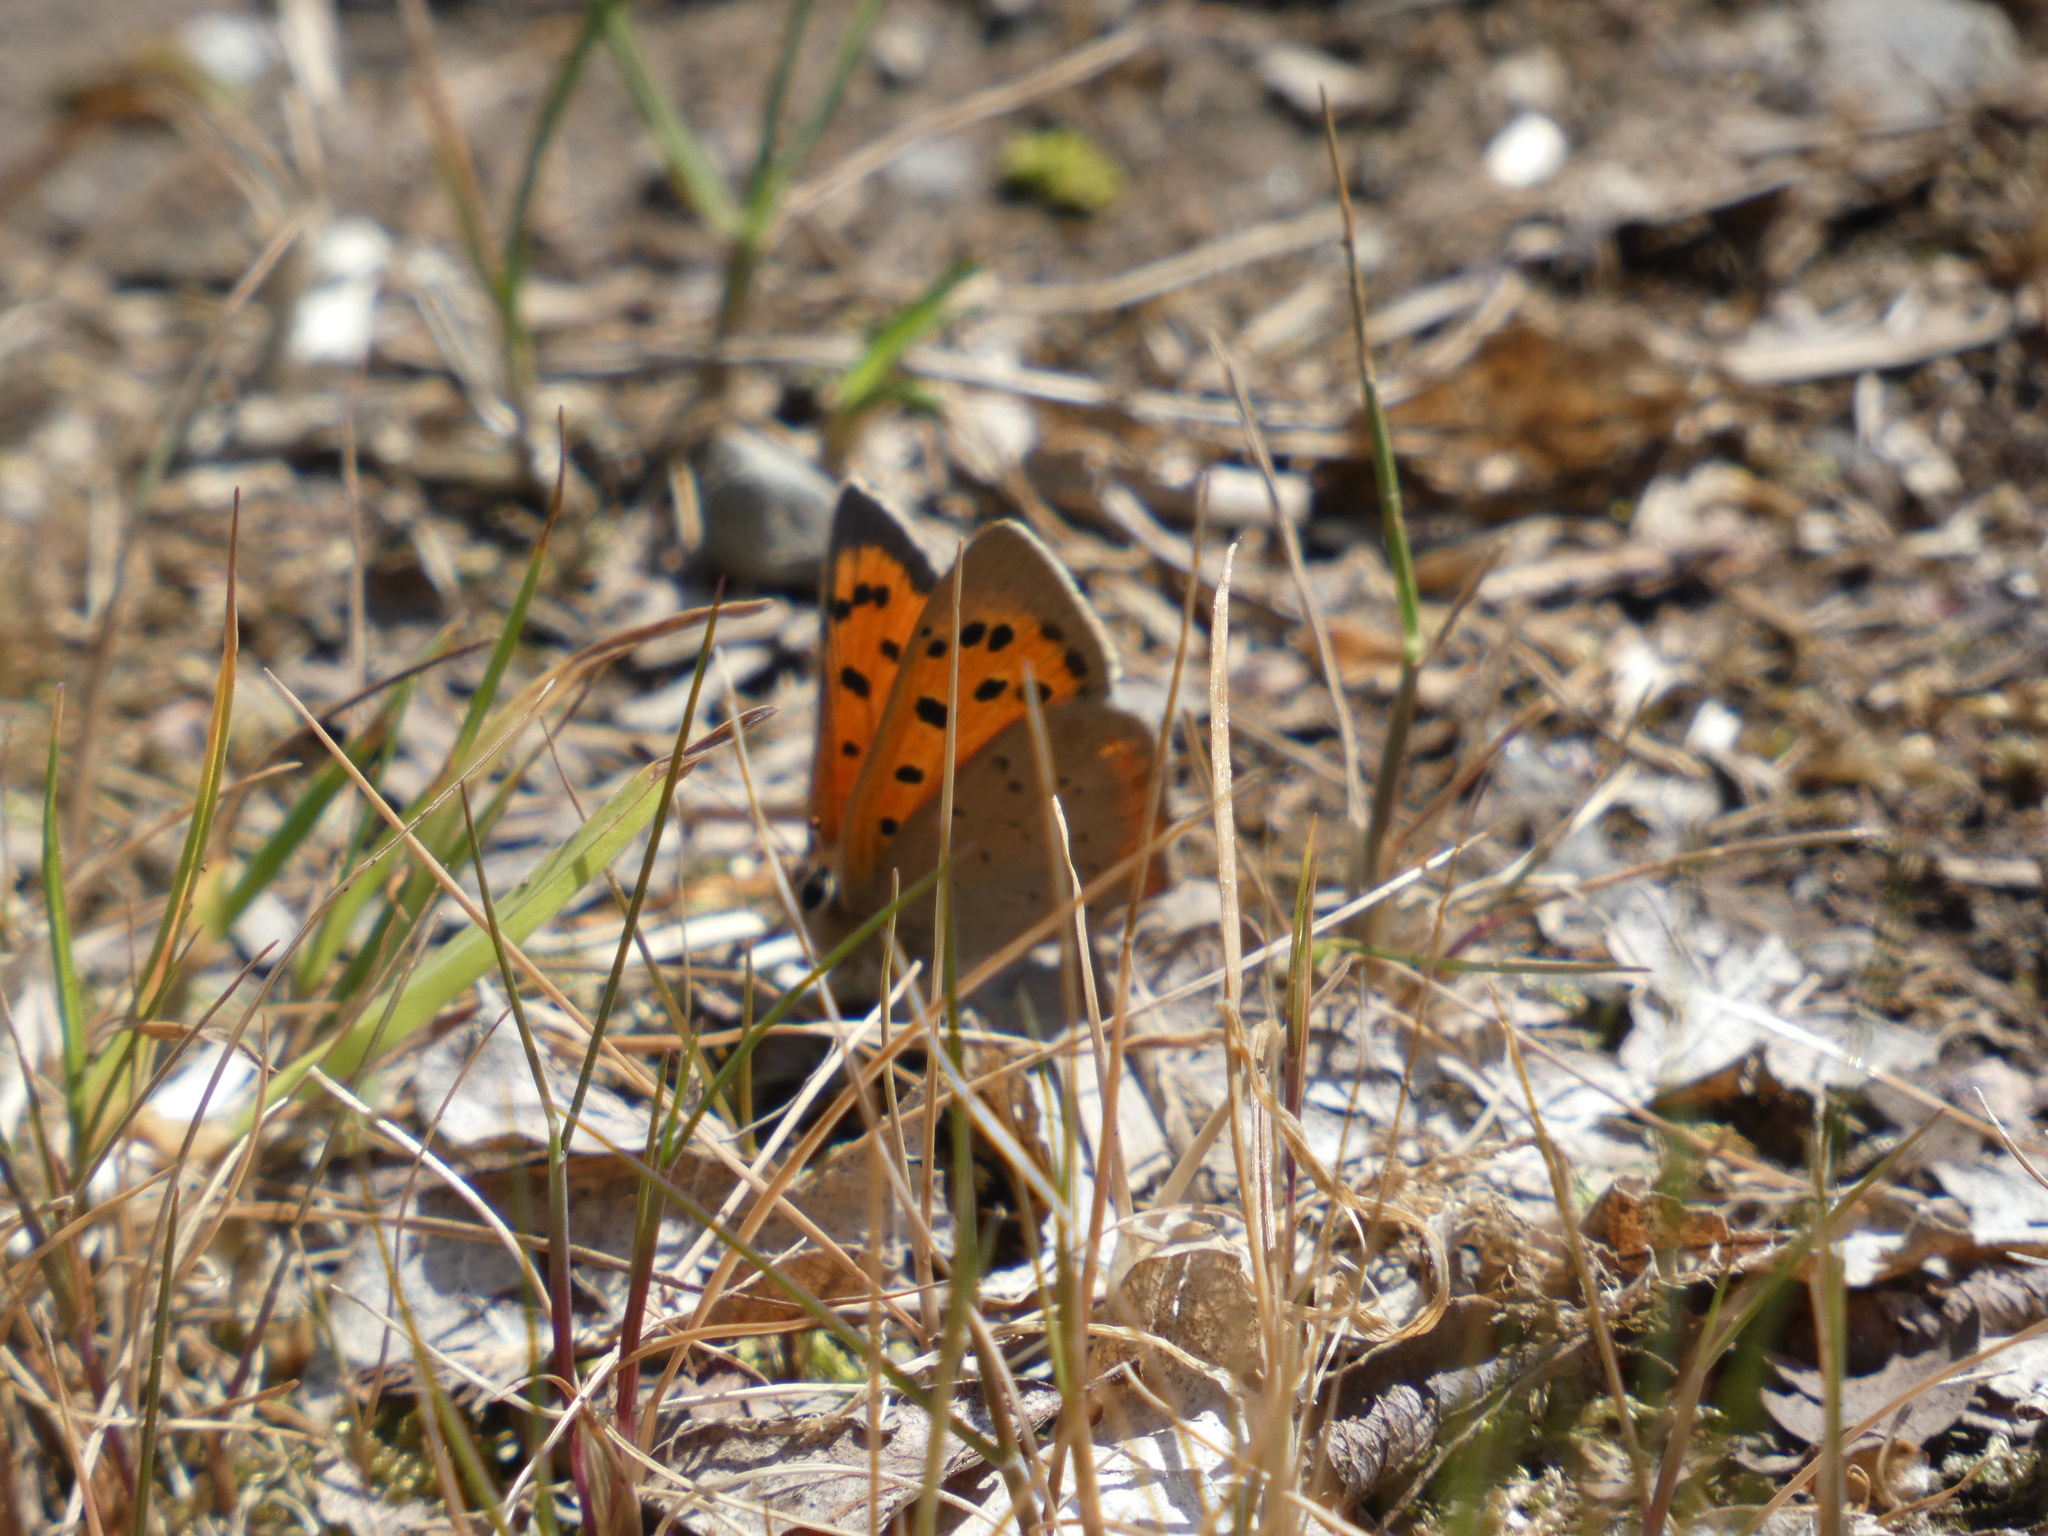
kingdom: Animalia
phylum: Arthropoda
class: Insecta
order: Lepidoptera
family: Lycaenidae
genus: Lycaena
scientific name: Lycaena phlaeas
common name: Small copper
